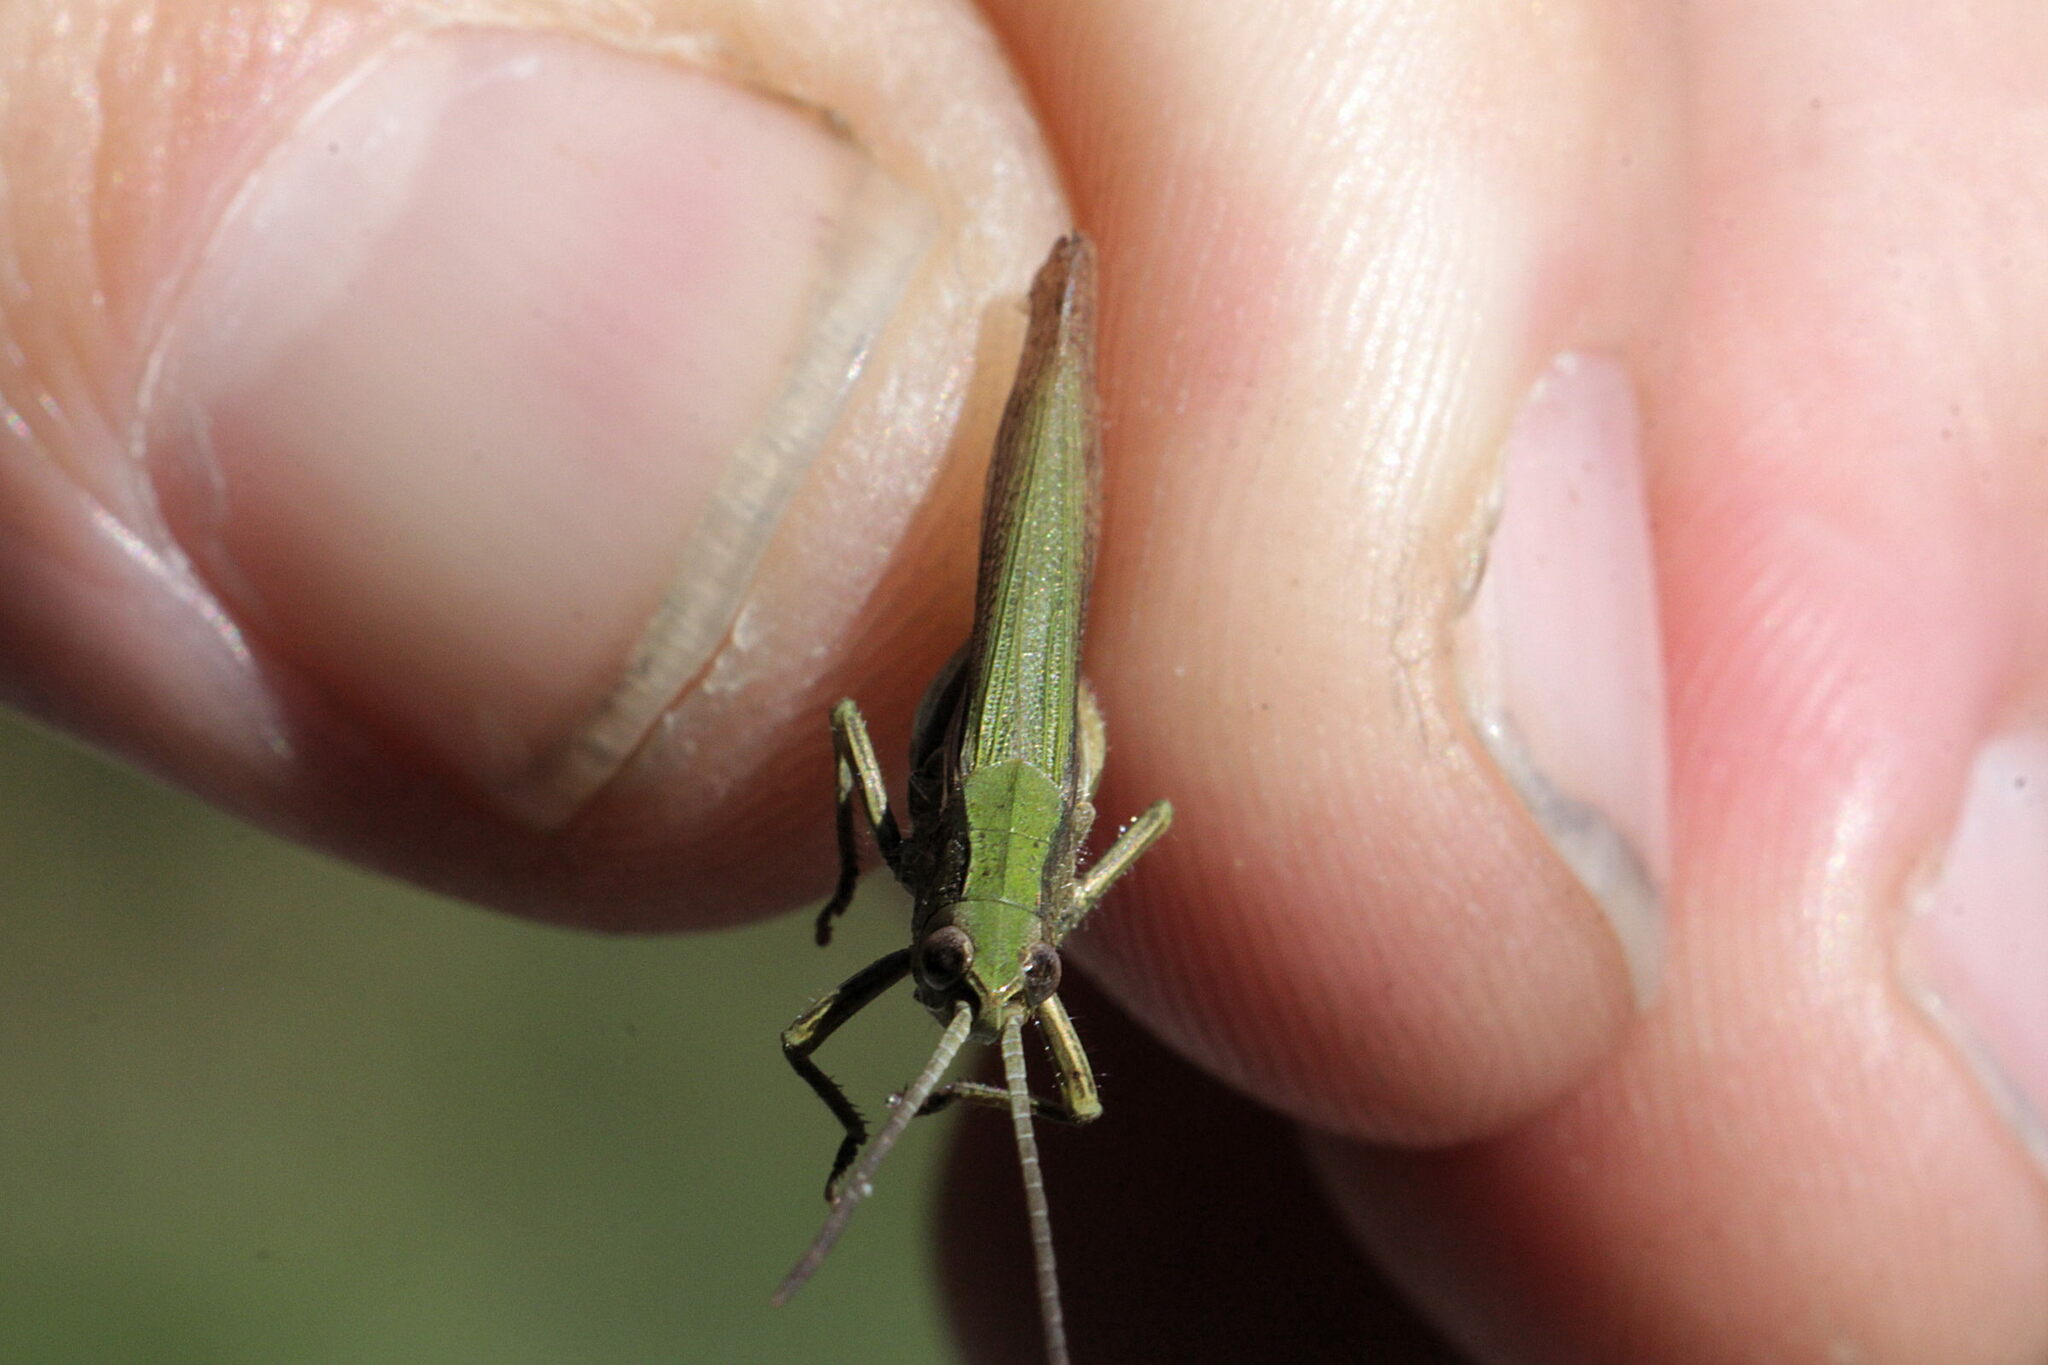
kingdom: Animalia
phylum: Arthropoda
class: Insecta
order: Orthoptera
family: Acrididae
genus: Chorthippus
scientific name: Chorthippus dorsatus
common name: Steppe grasshopper
